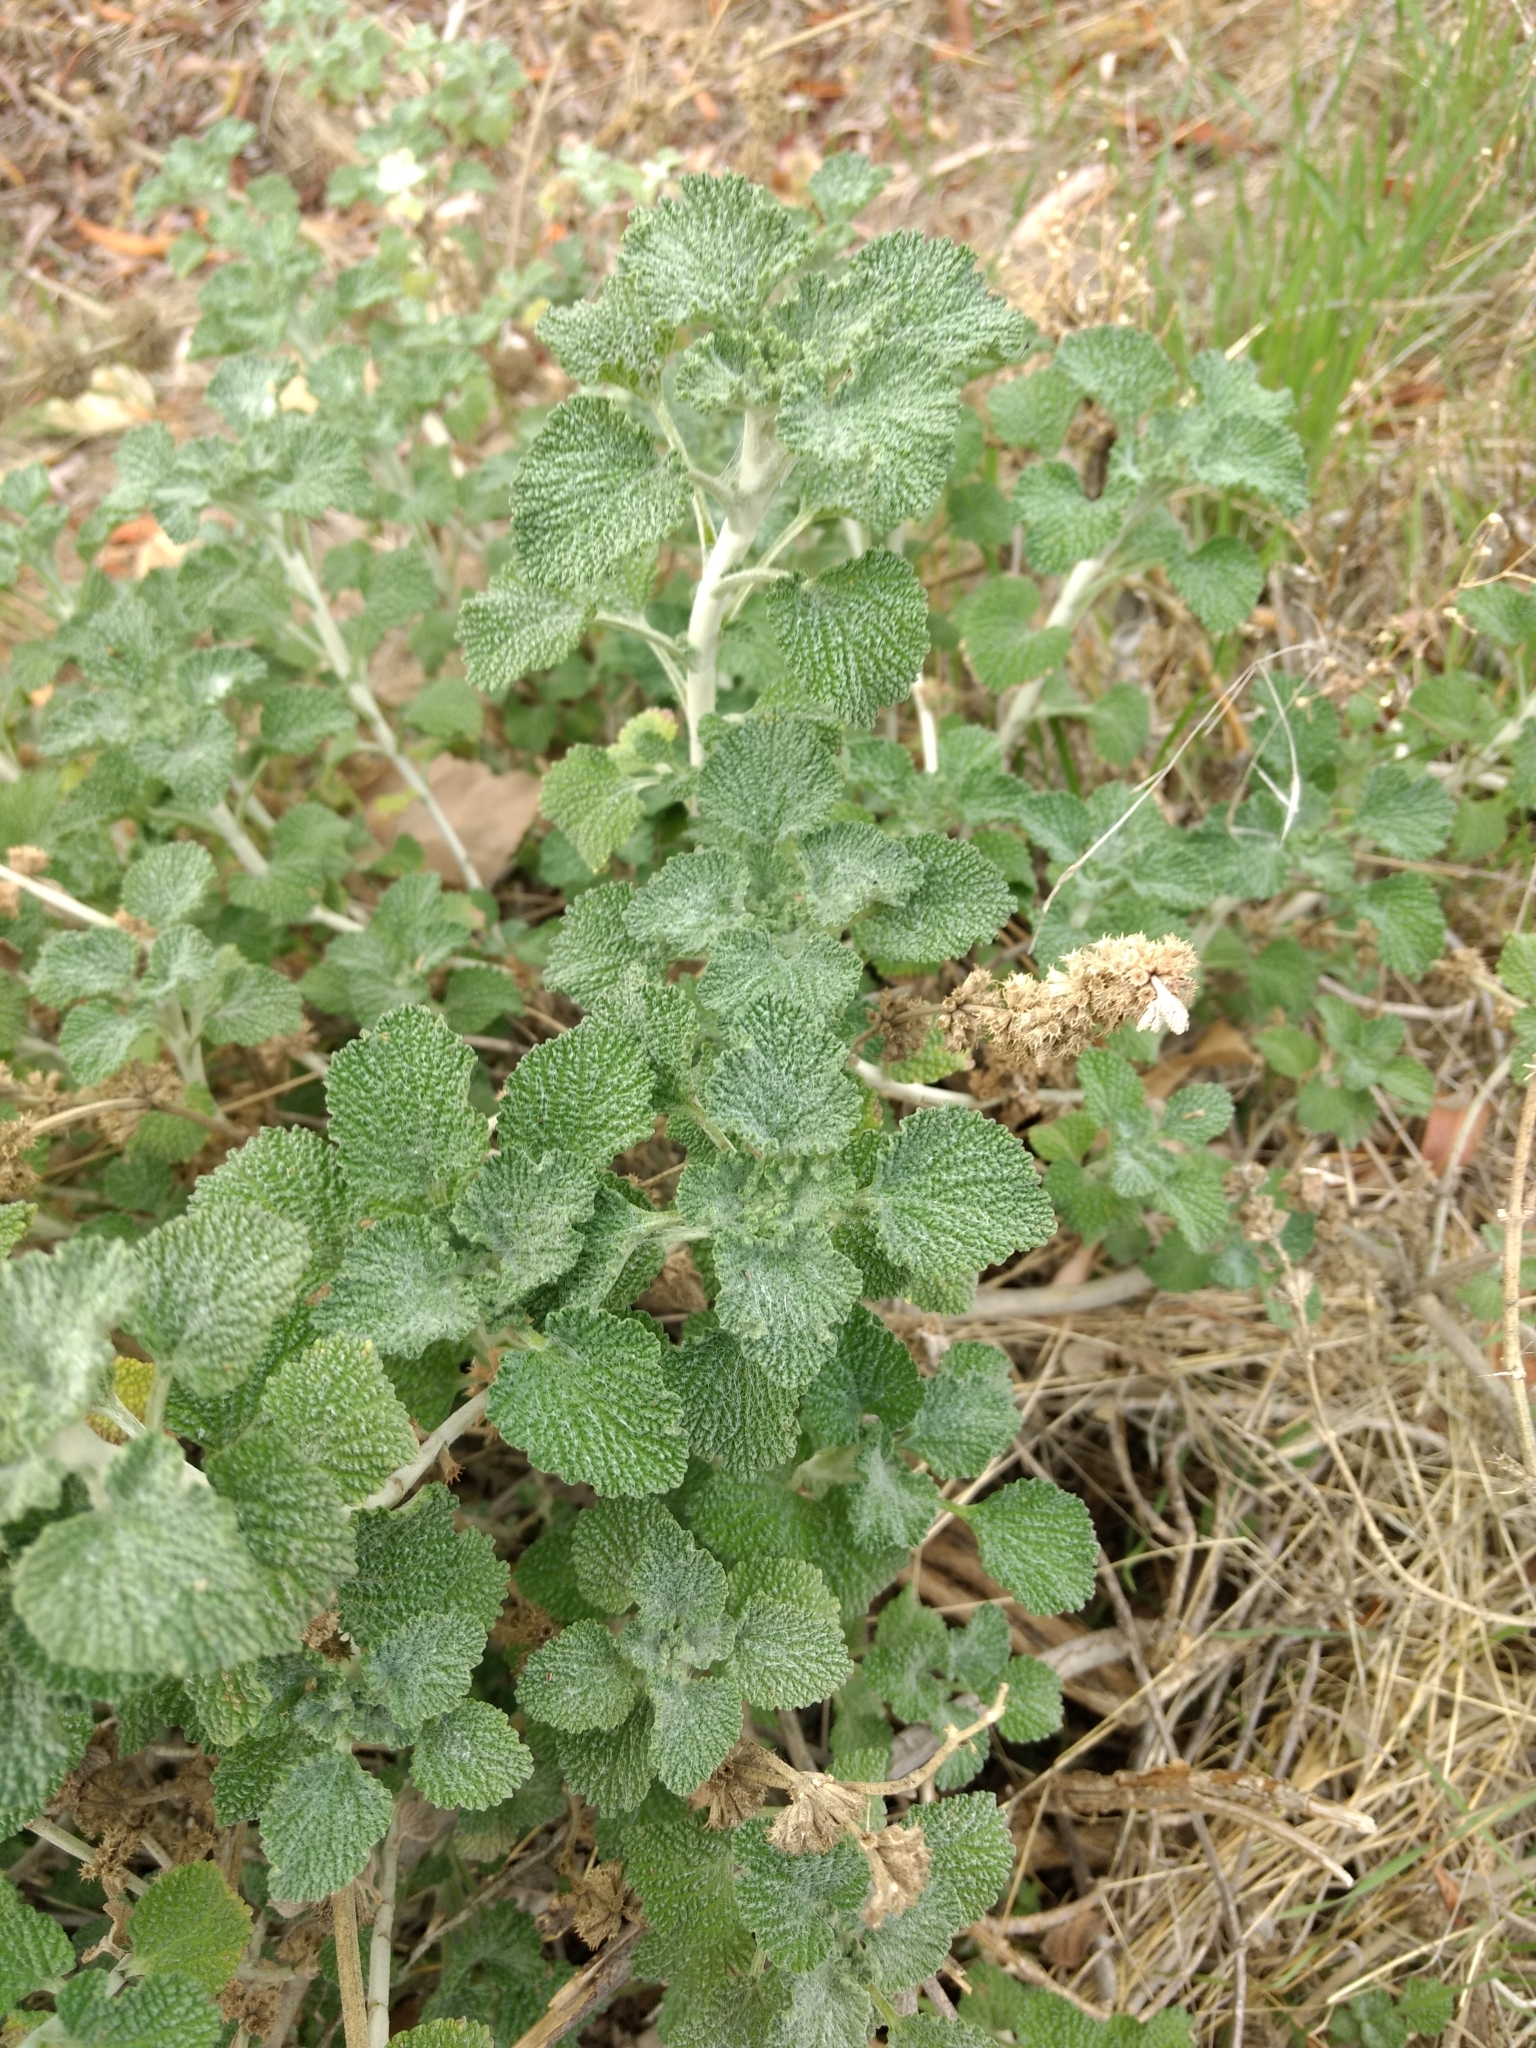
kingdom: Plantae
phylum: Tracheophyta
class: Magnoliopsida
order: Lamiales
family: Lamiaceae
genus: Marrubium
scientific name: Marrubium vulgare
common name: Horehound
